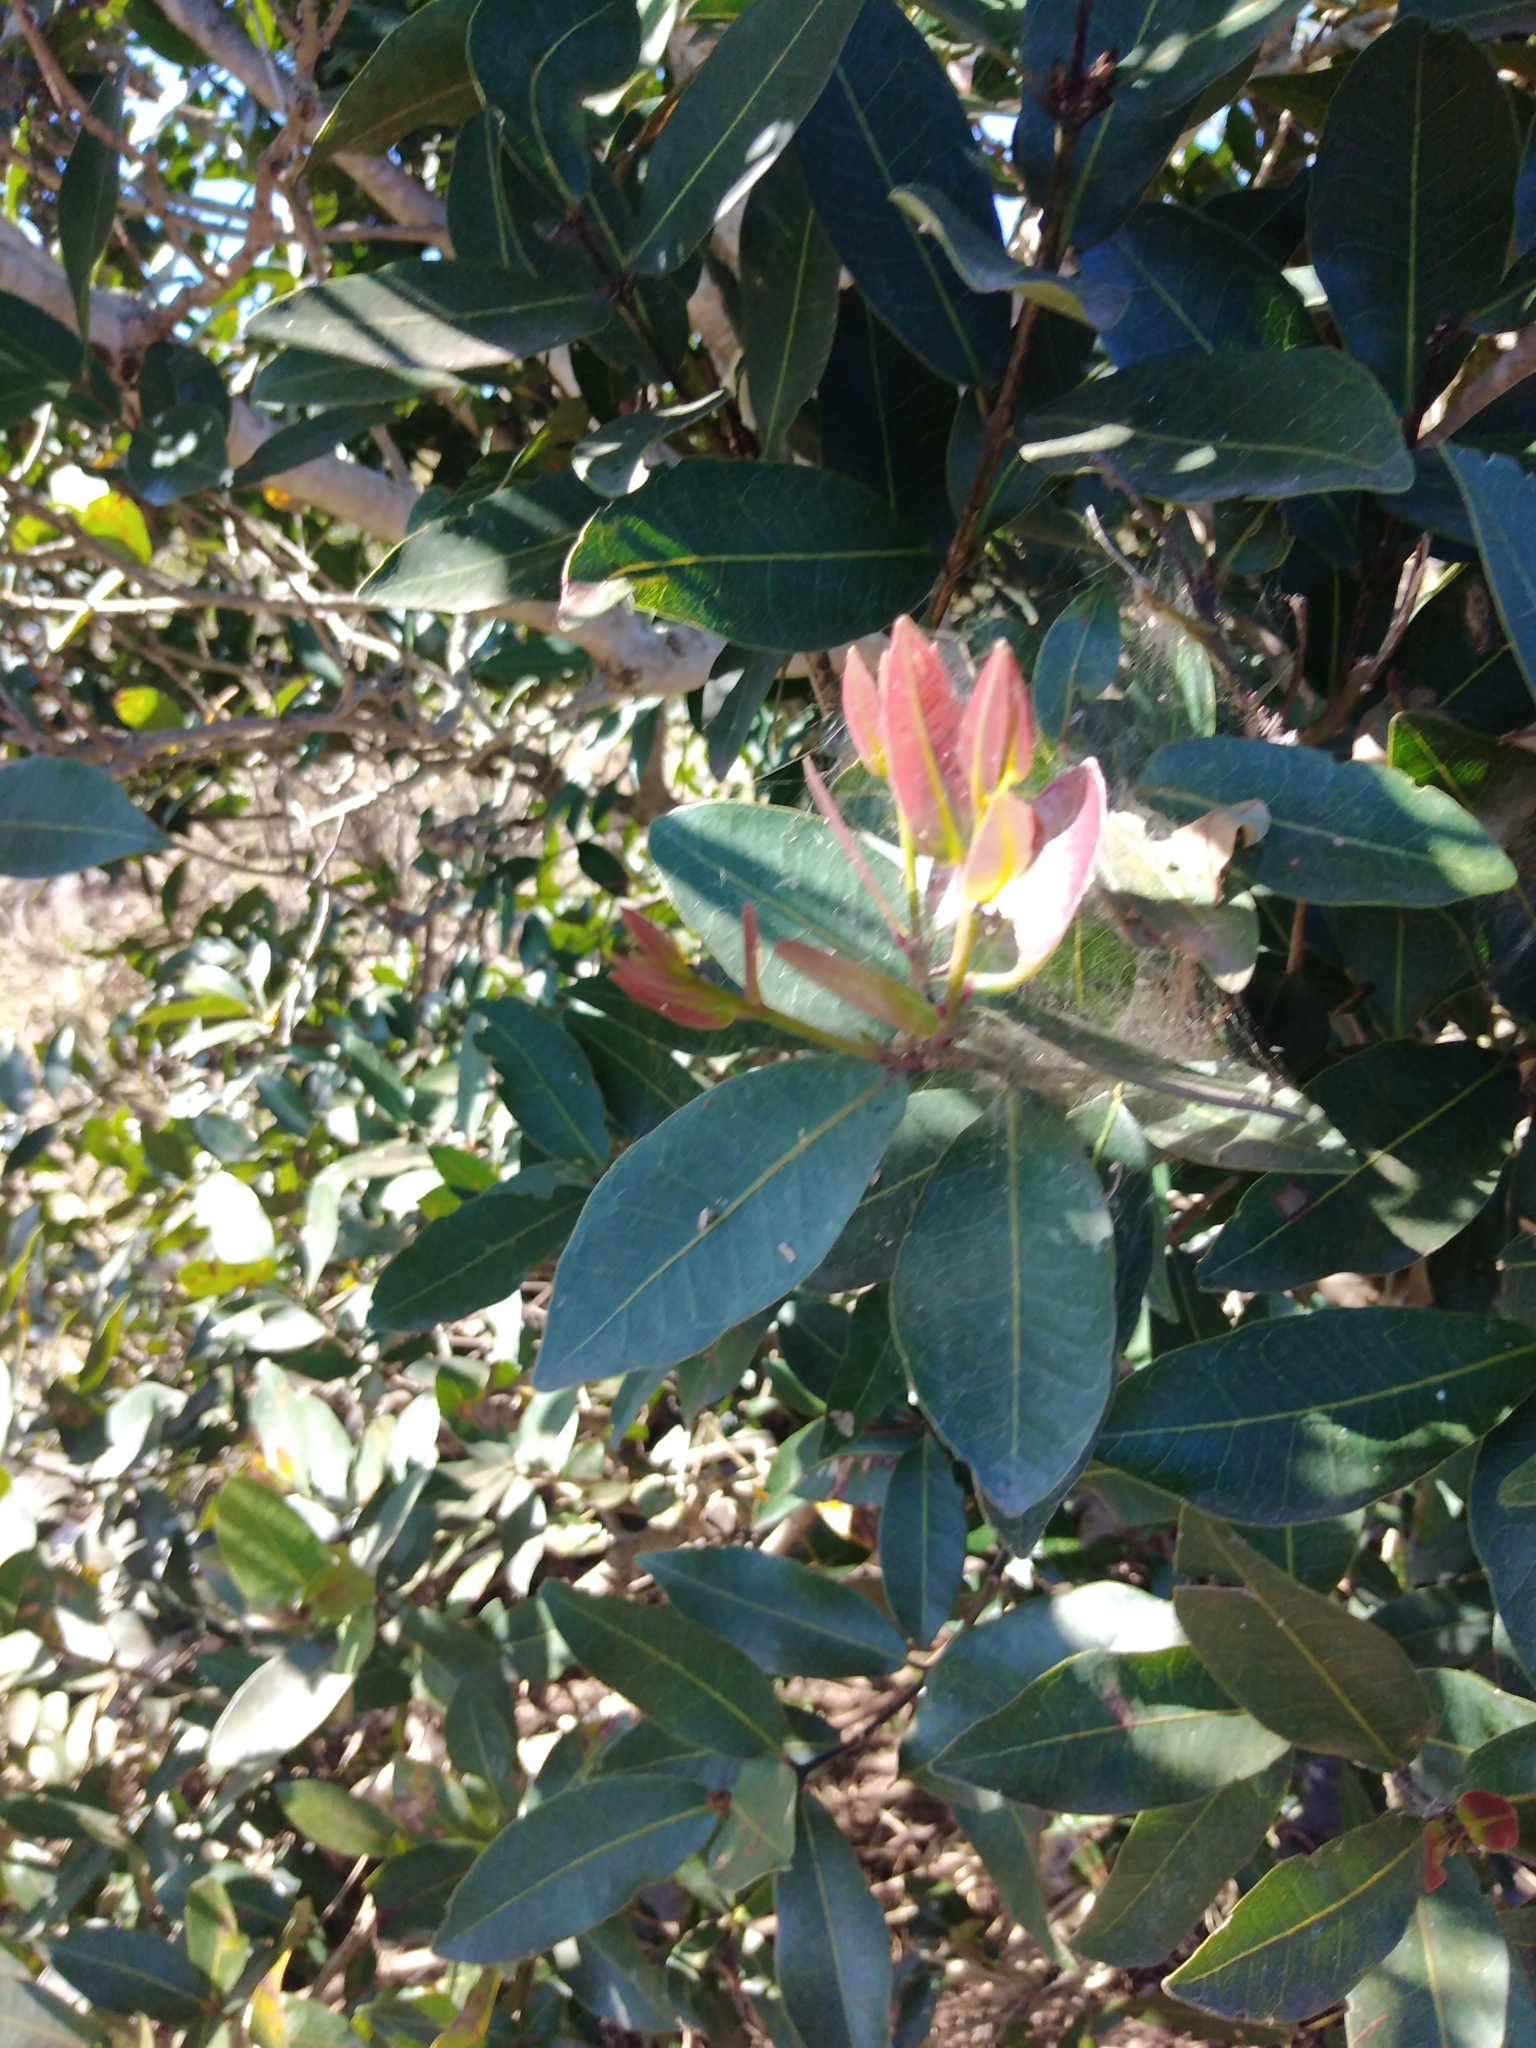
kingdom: Plantae
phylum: Tracheophyta
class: Magnoliopsida
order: Myrtales
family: Myrtaceae
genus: Syzygium
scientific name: Syzygium cordatum
